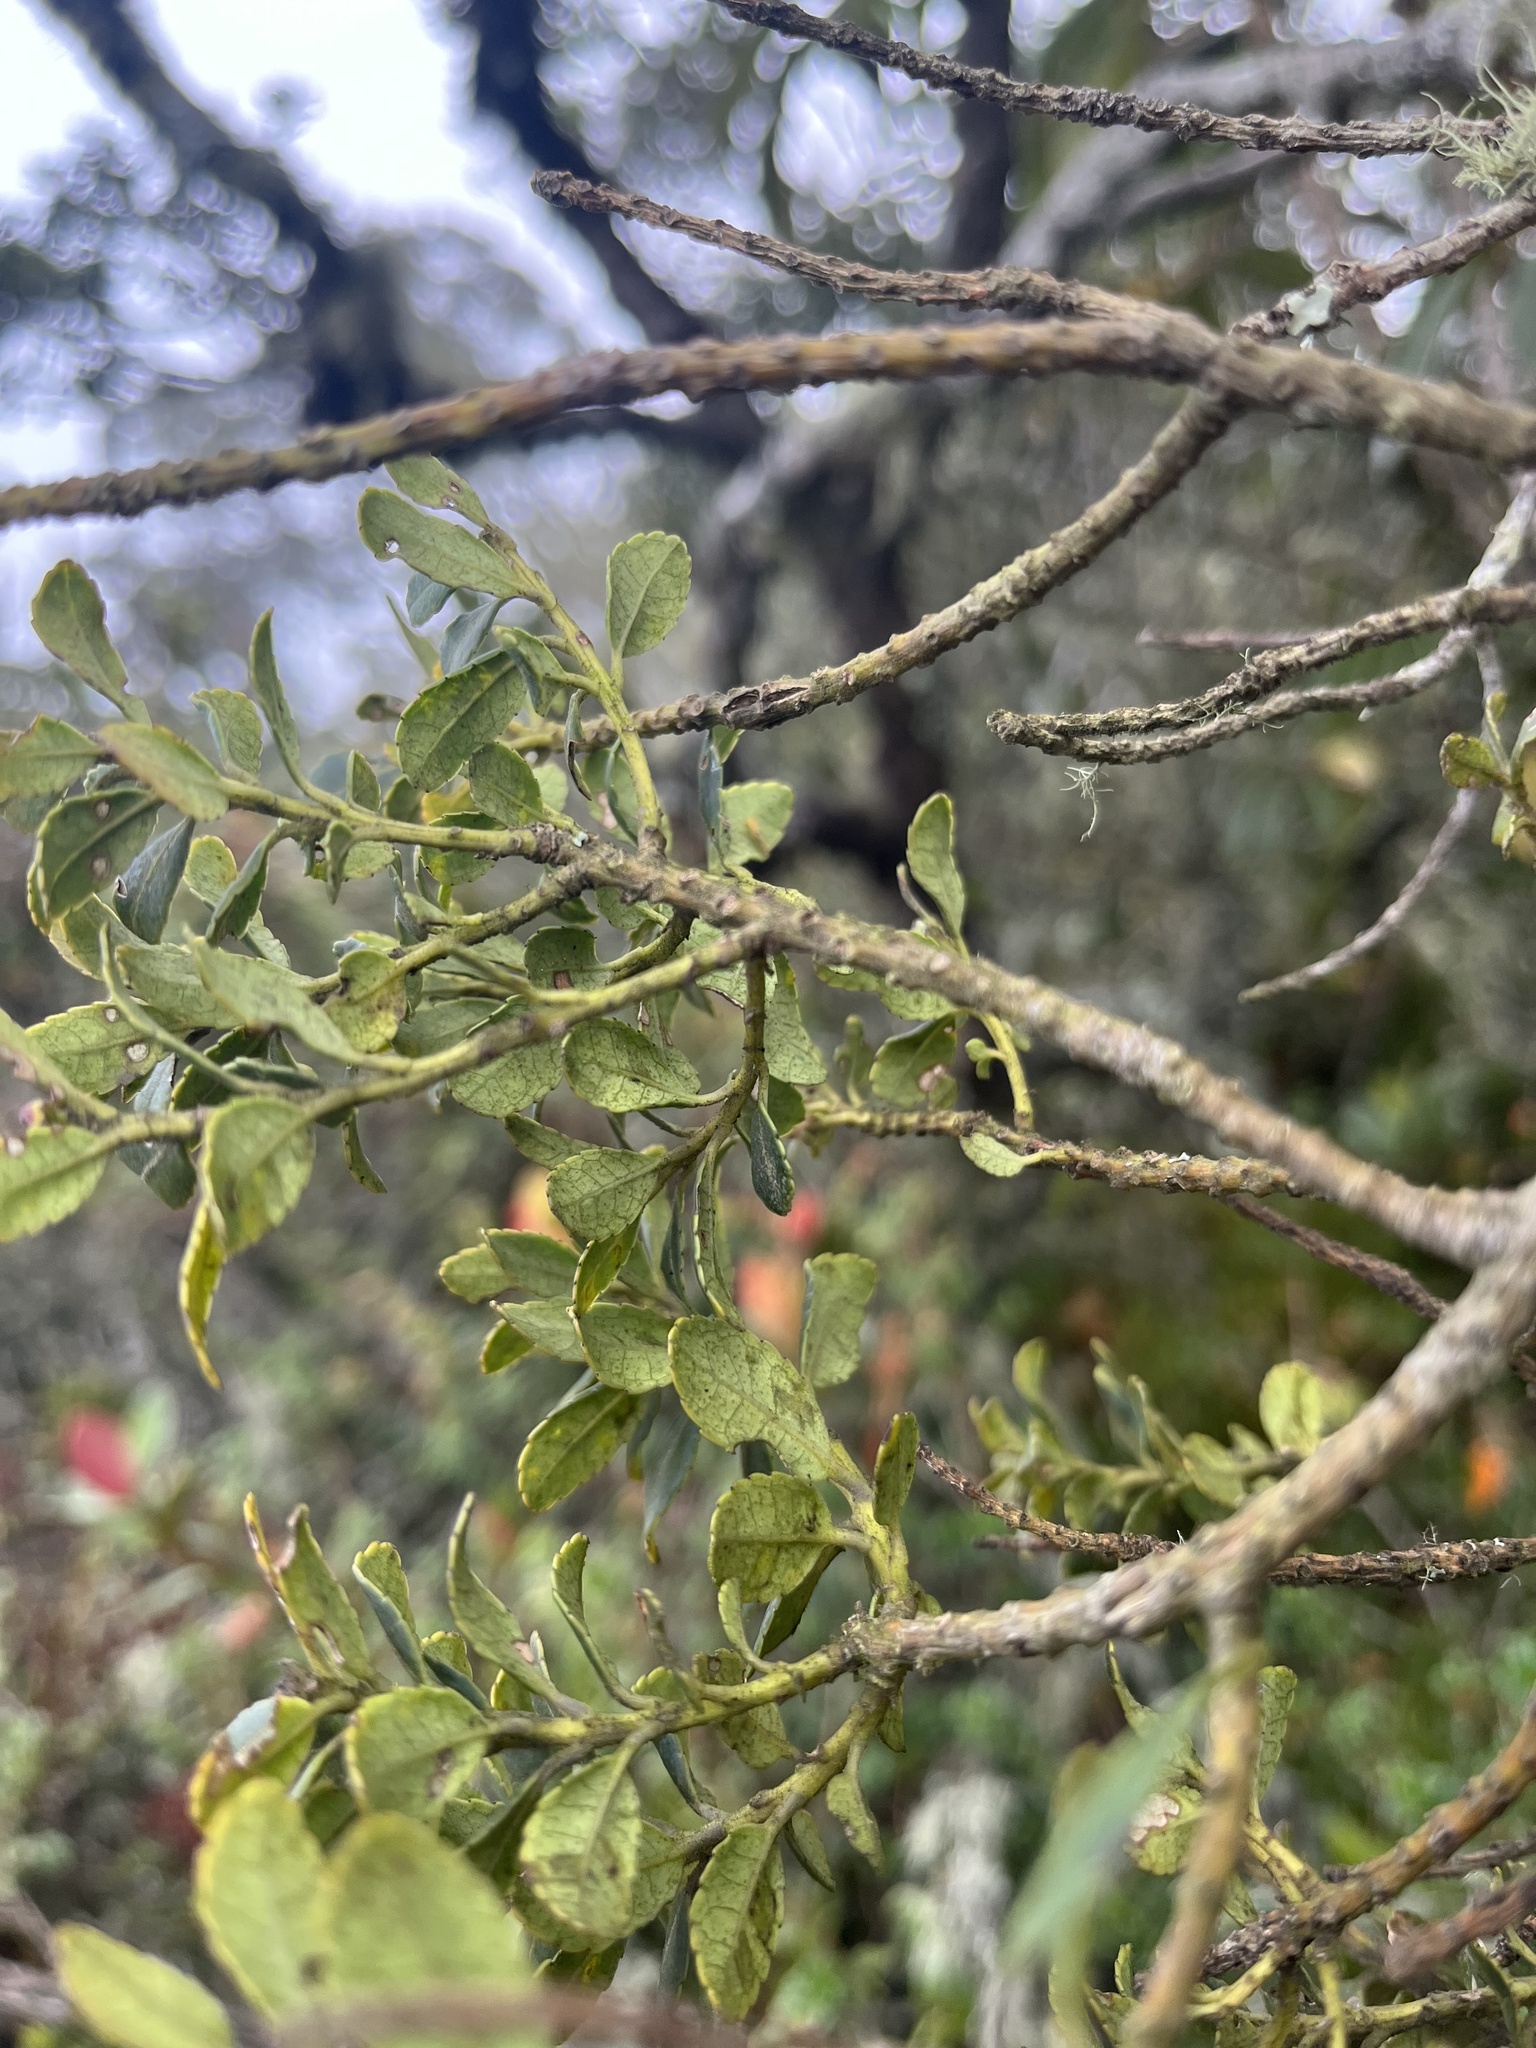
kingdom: Plantae
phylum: Tracheophyta
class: Magnoliopsida
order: Aquifoliales
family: Aquifoliaceae
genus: Ilex
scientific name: Ilex microphylla
